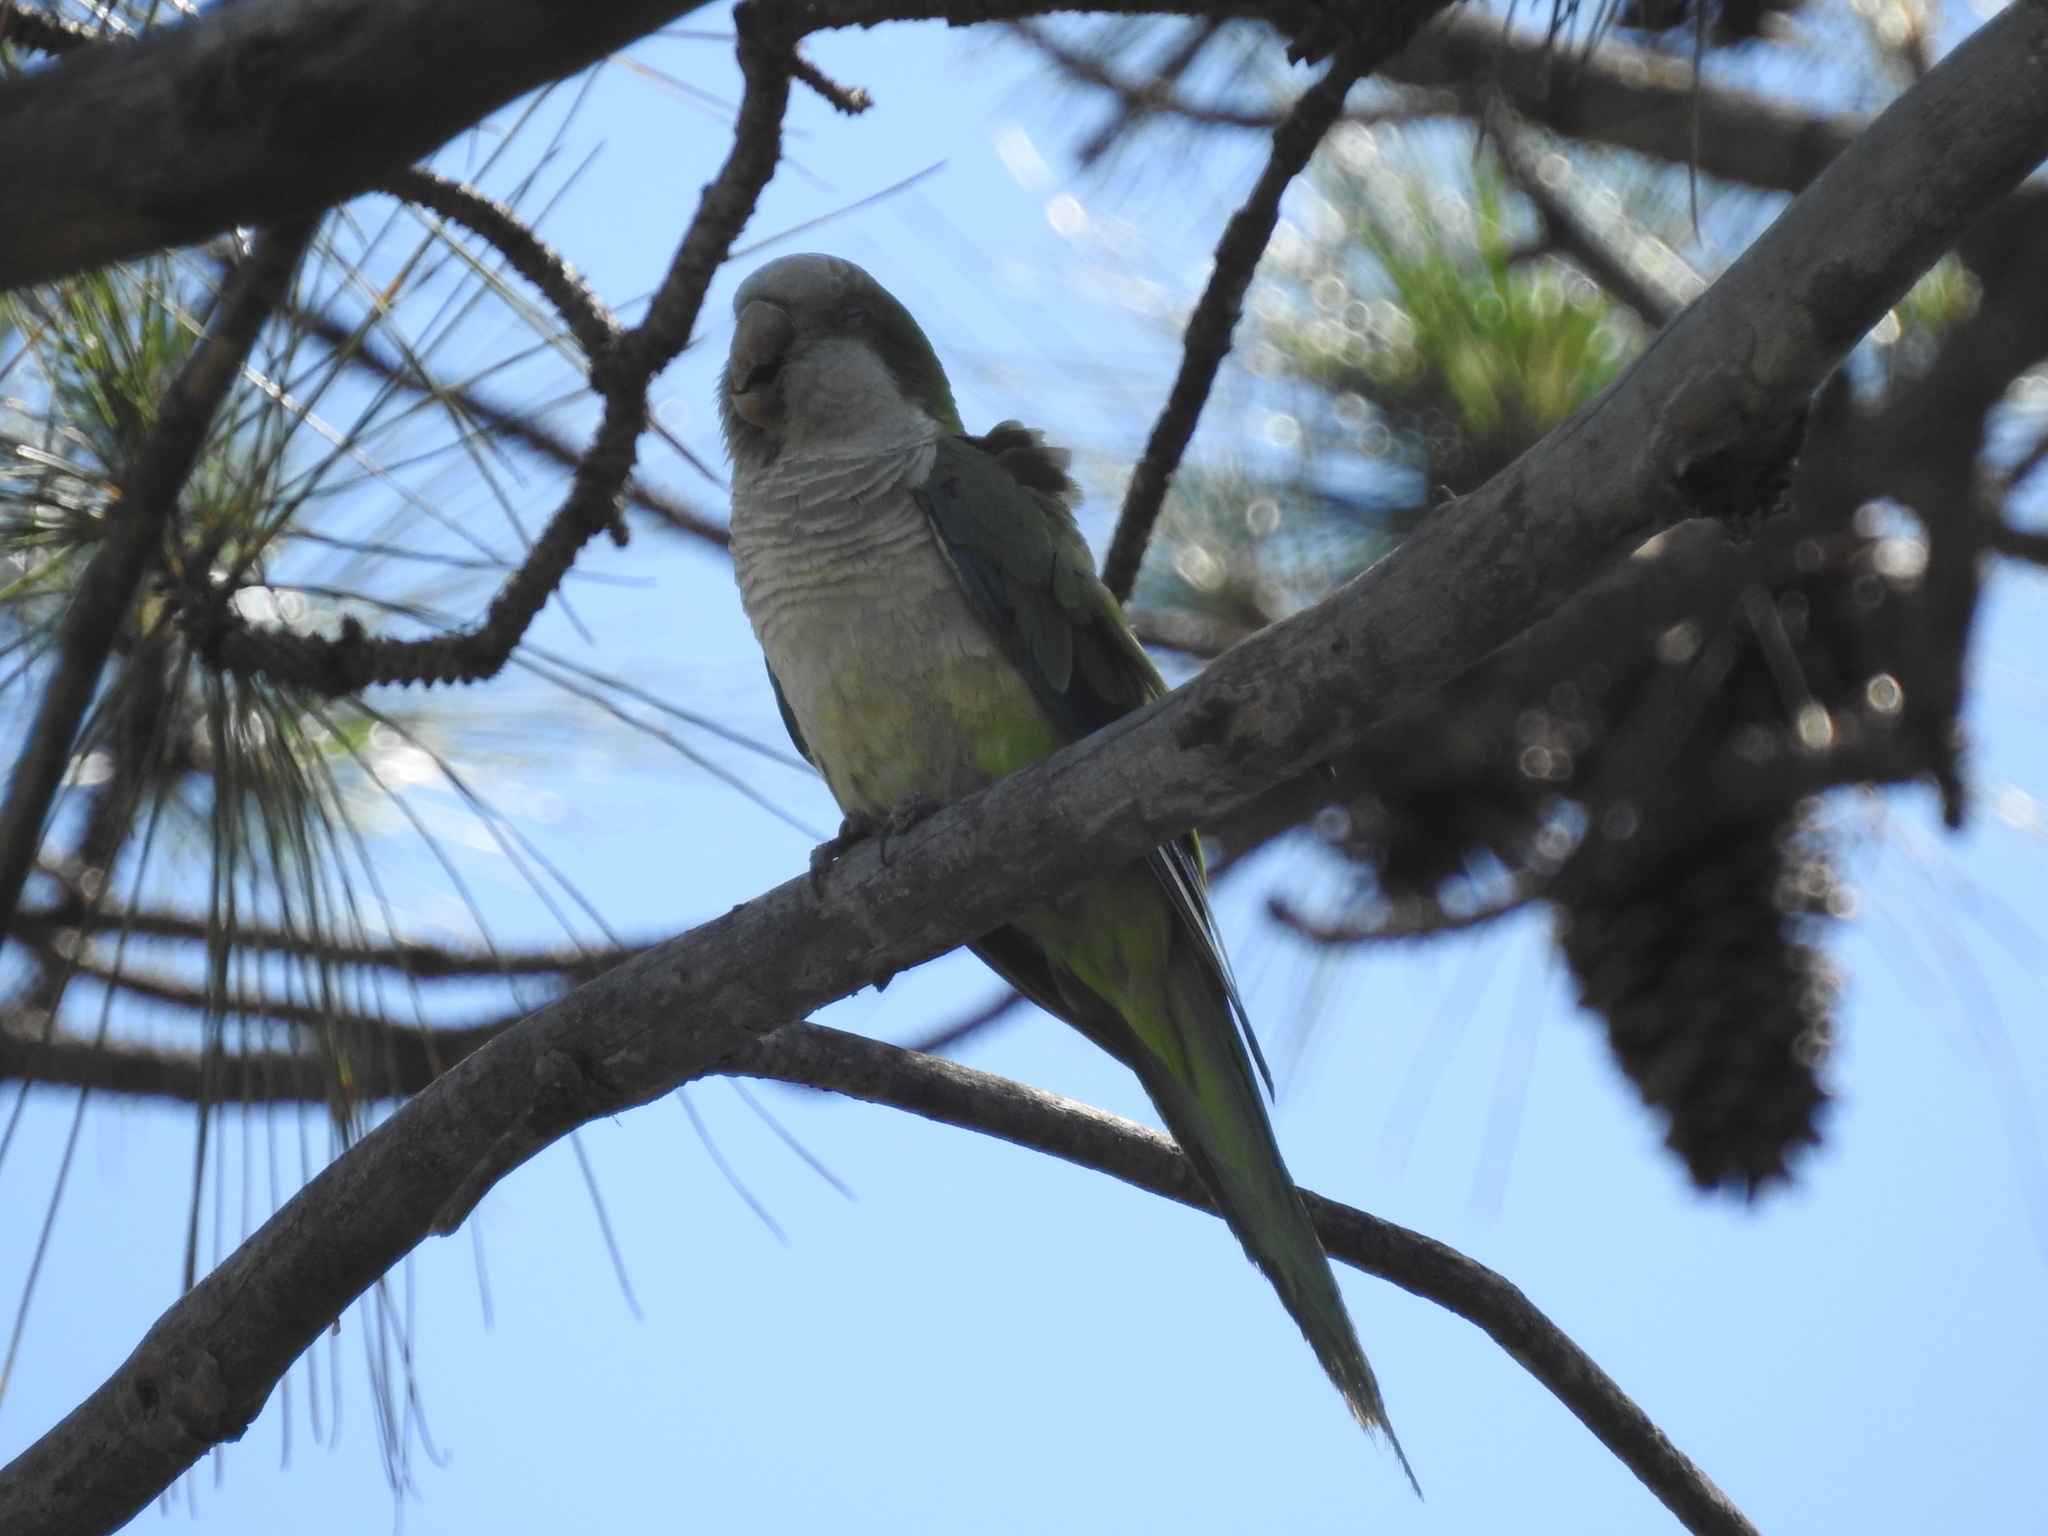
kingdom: Animalia
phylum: Chordata
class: Aves
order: Psittaciformes
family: Psittacidae
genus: Myiopsitta
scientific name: Myiopsitta monachus
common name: Monk parakeet
